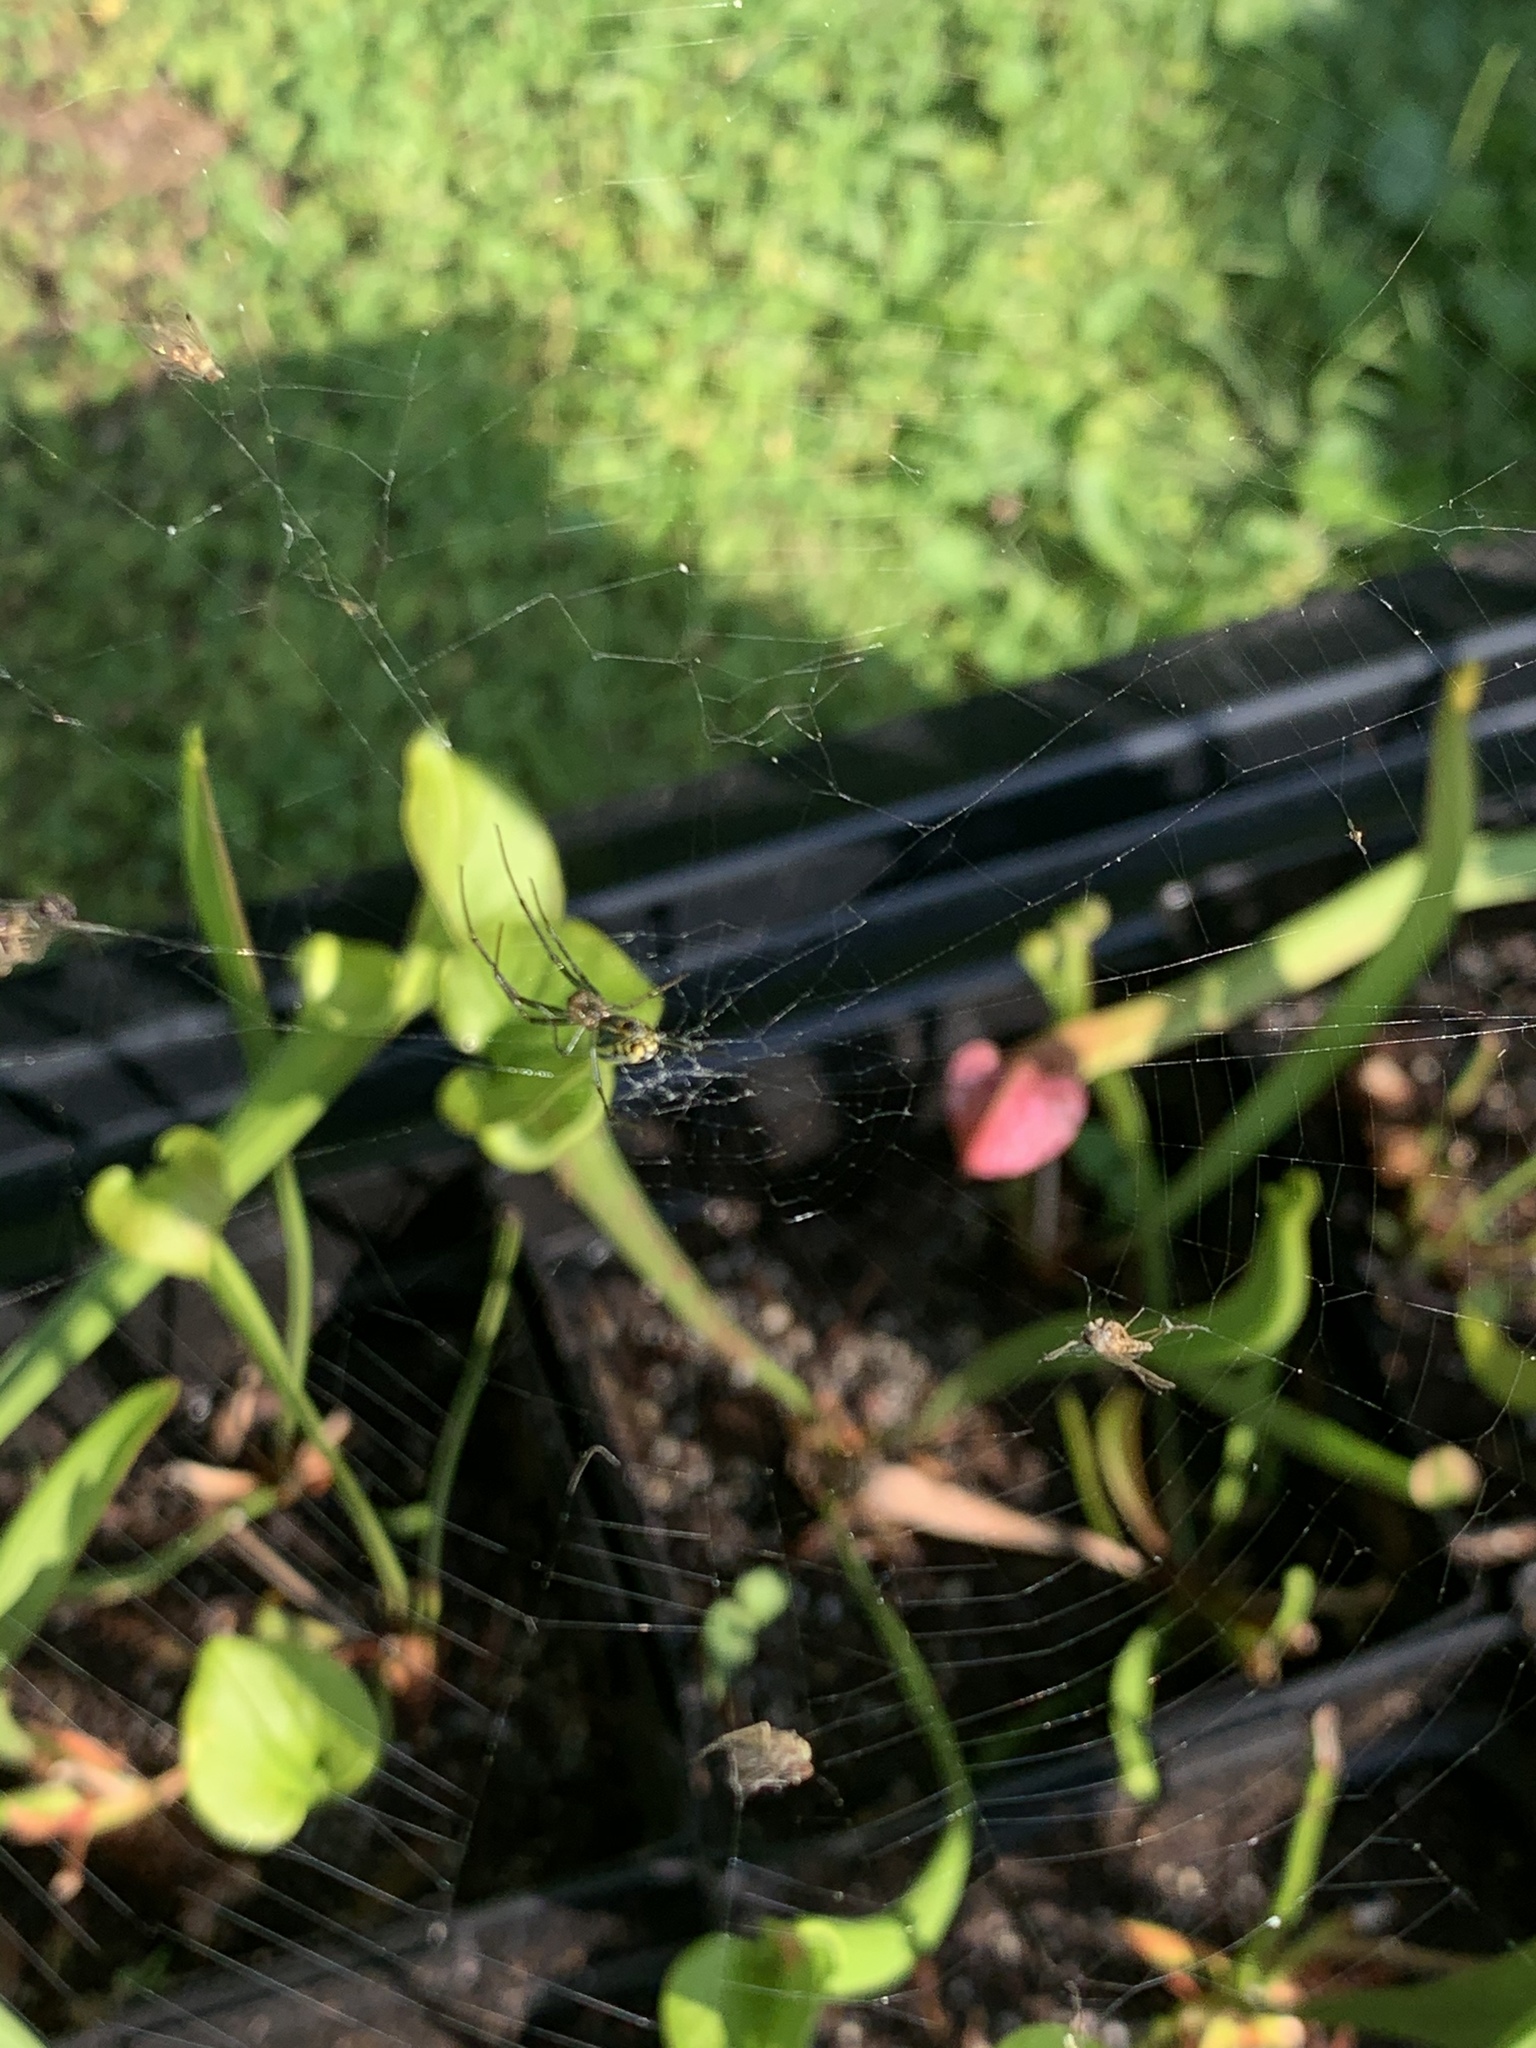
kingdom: Animalia
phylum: Arthropoda
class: Arachnida
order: Araneae
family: Tetragnathidae
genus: Leucauge
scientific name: Leucauge venusta
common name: Longjawed orb weavers
